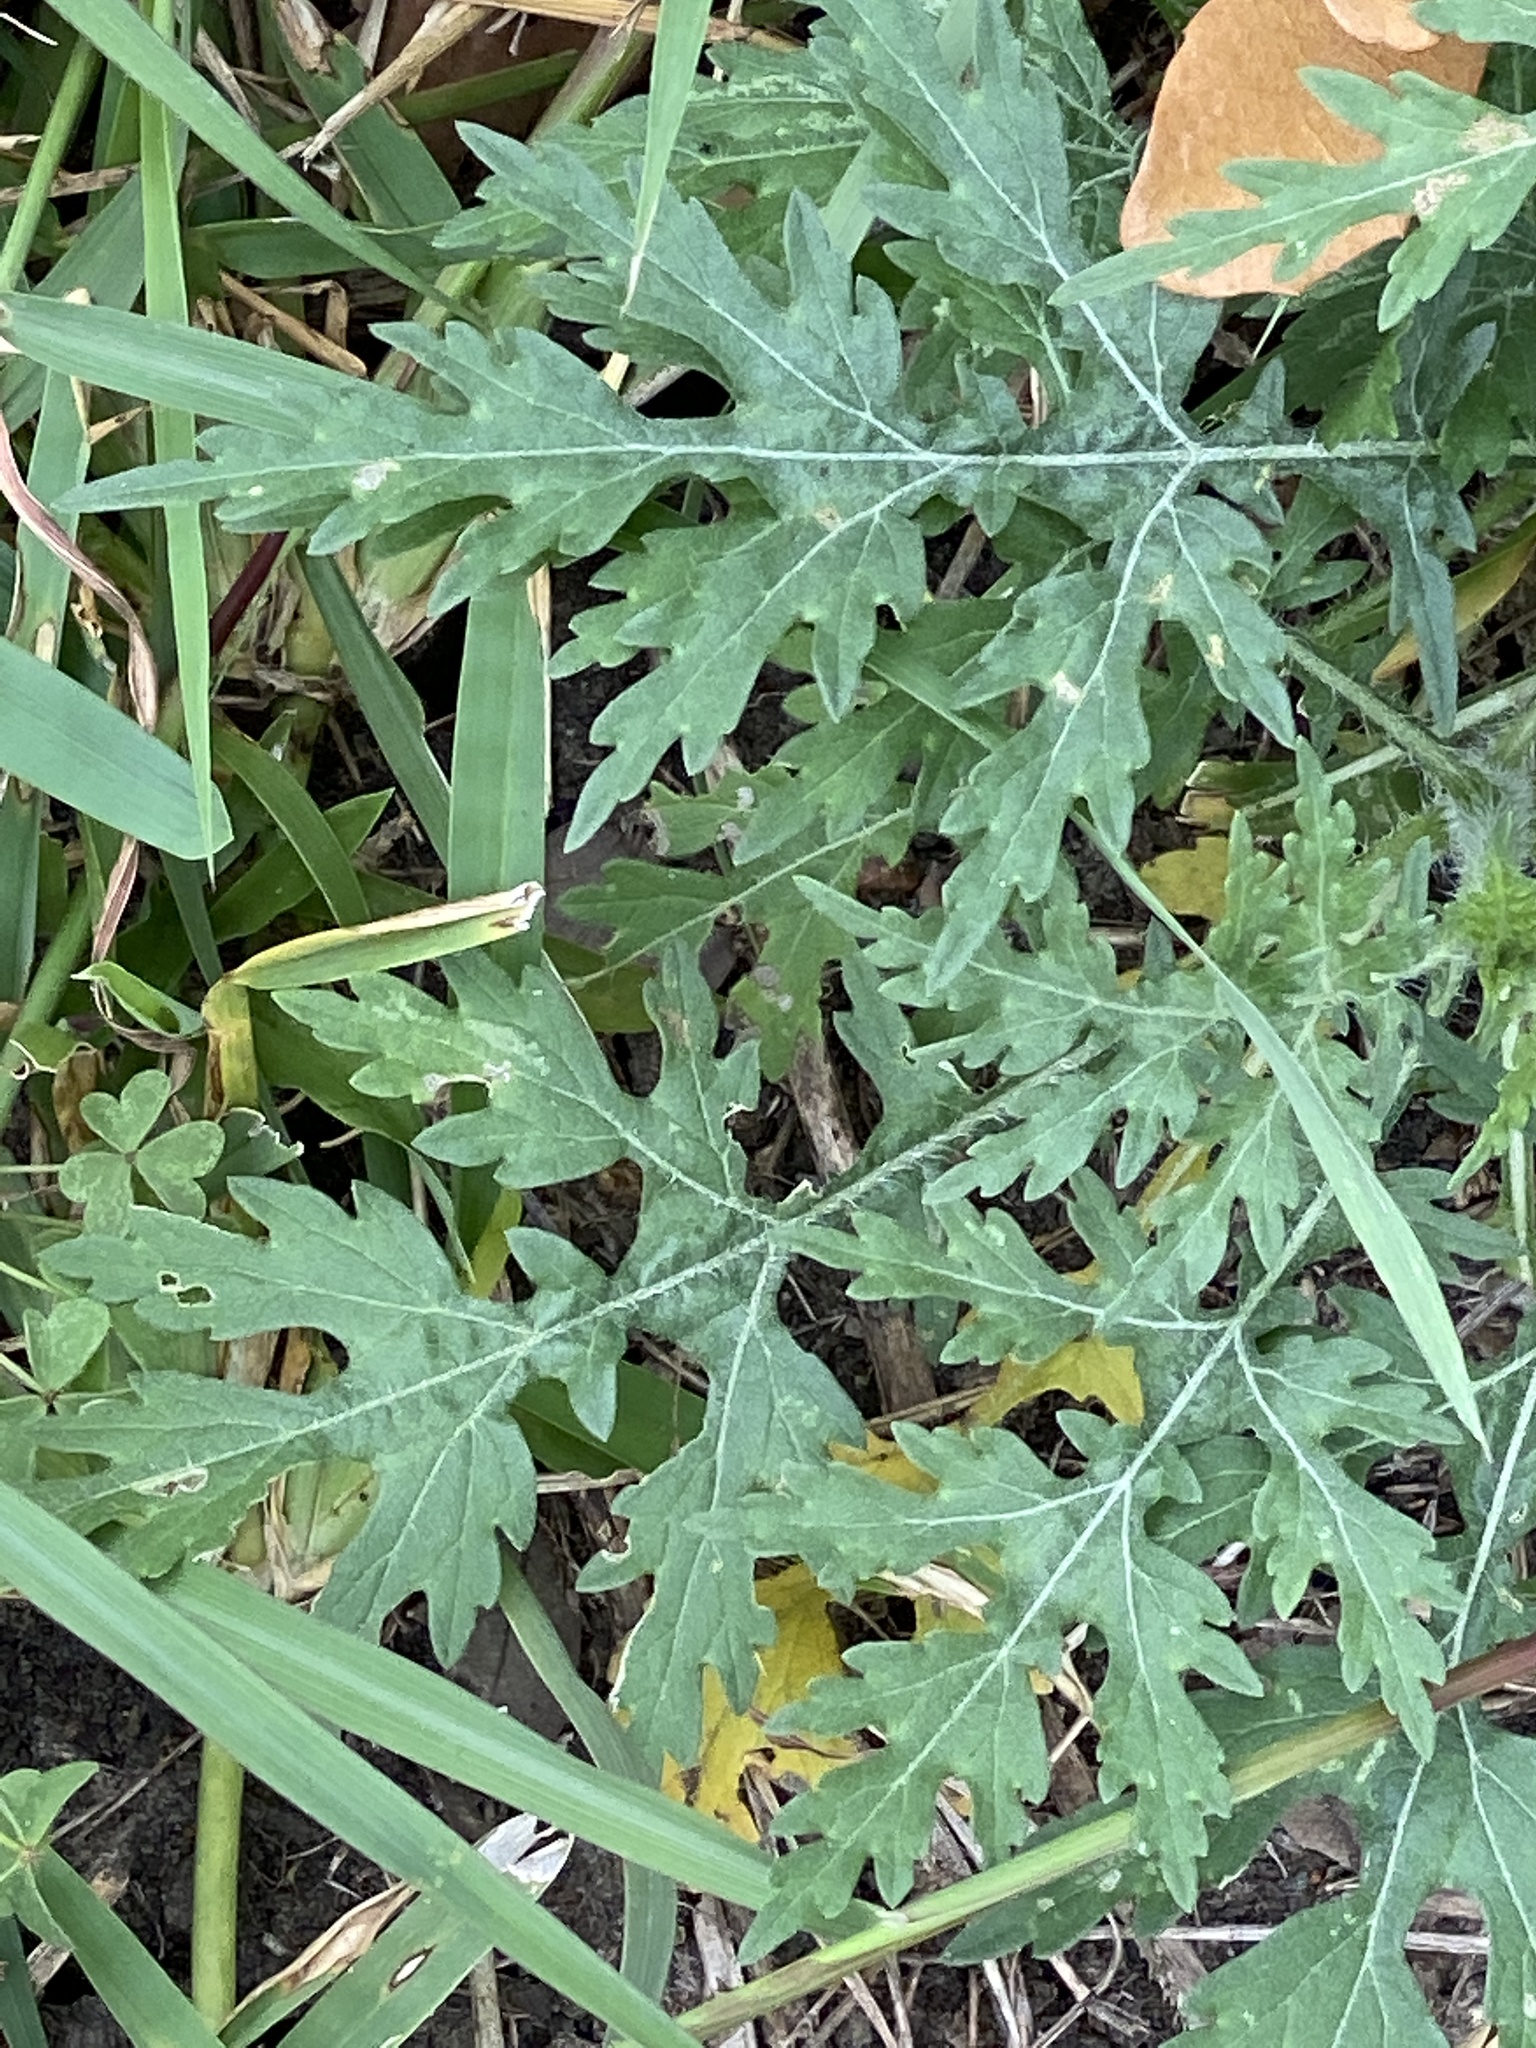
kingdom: Plantae
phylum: Tracheophyta
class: Magnoliopsida
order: Asterales
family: Asteraceae
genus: Parthenium
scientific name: Parthenium hysterophorus
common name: Santa maria feverfew
